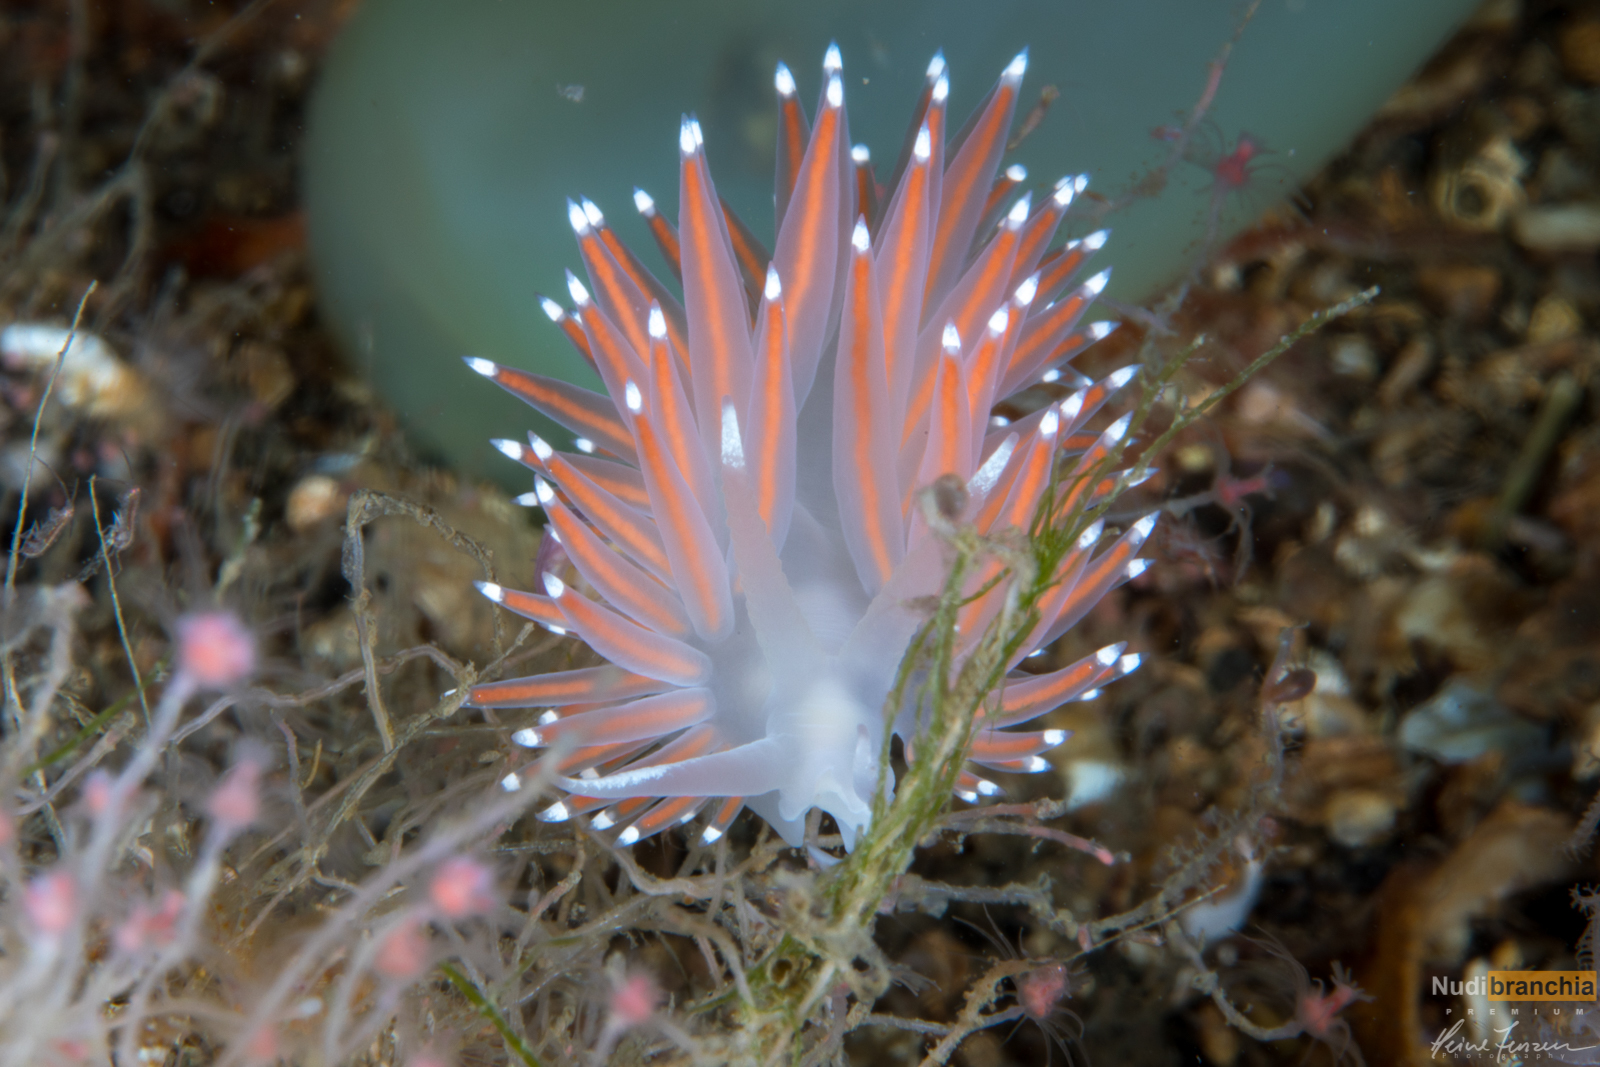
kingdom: Animalia
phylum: Mollusca
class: Gastropoda
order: Nudibranchia
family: Coryphellidae
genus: Coryphella
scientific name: Coryphella browni
